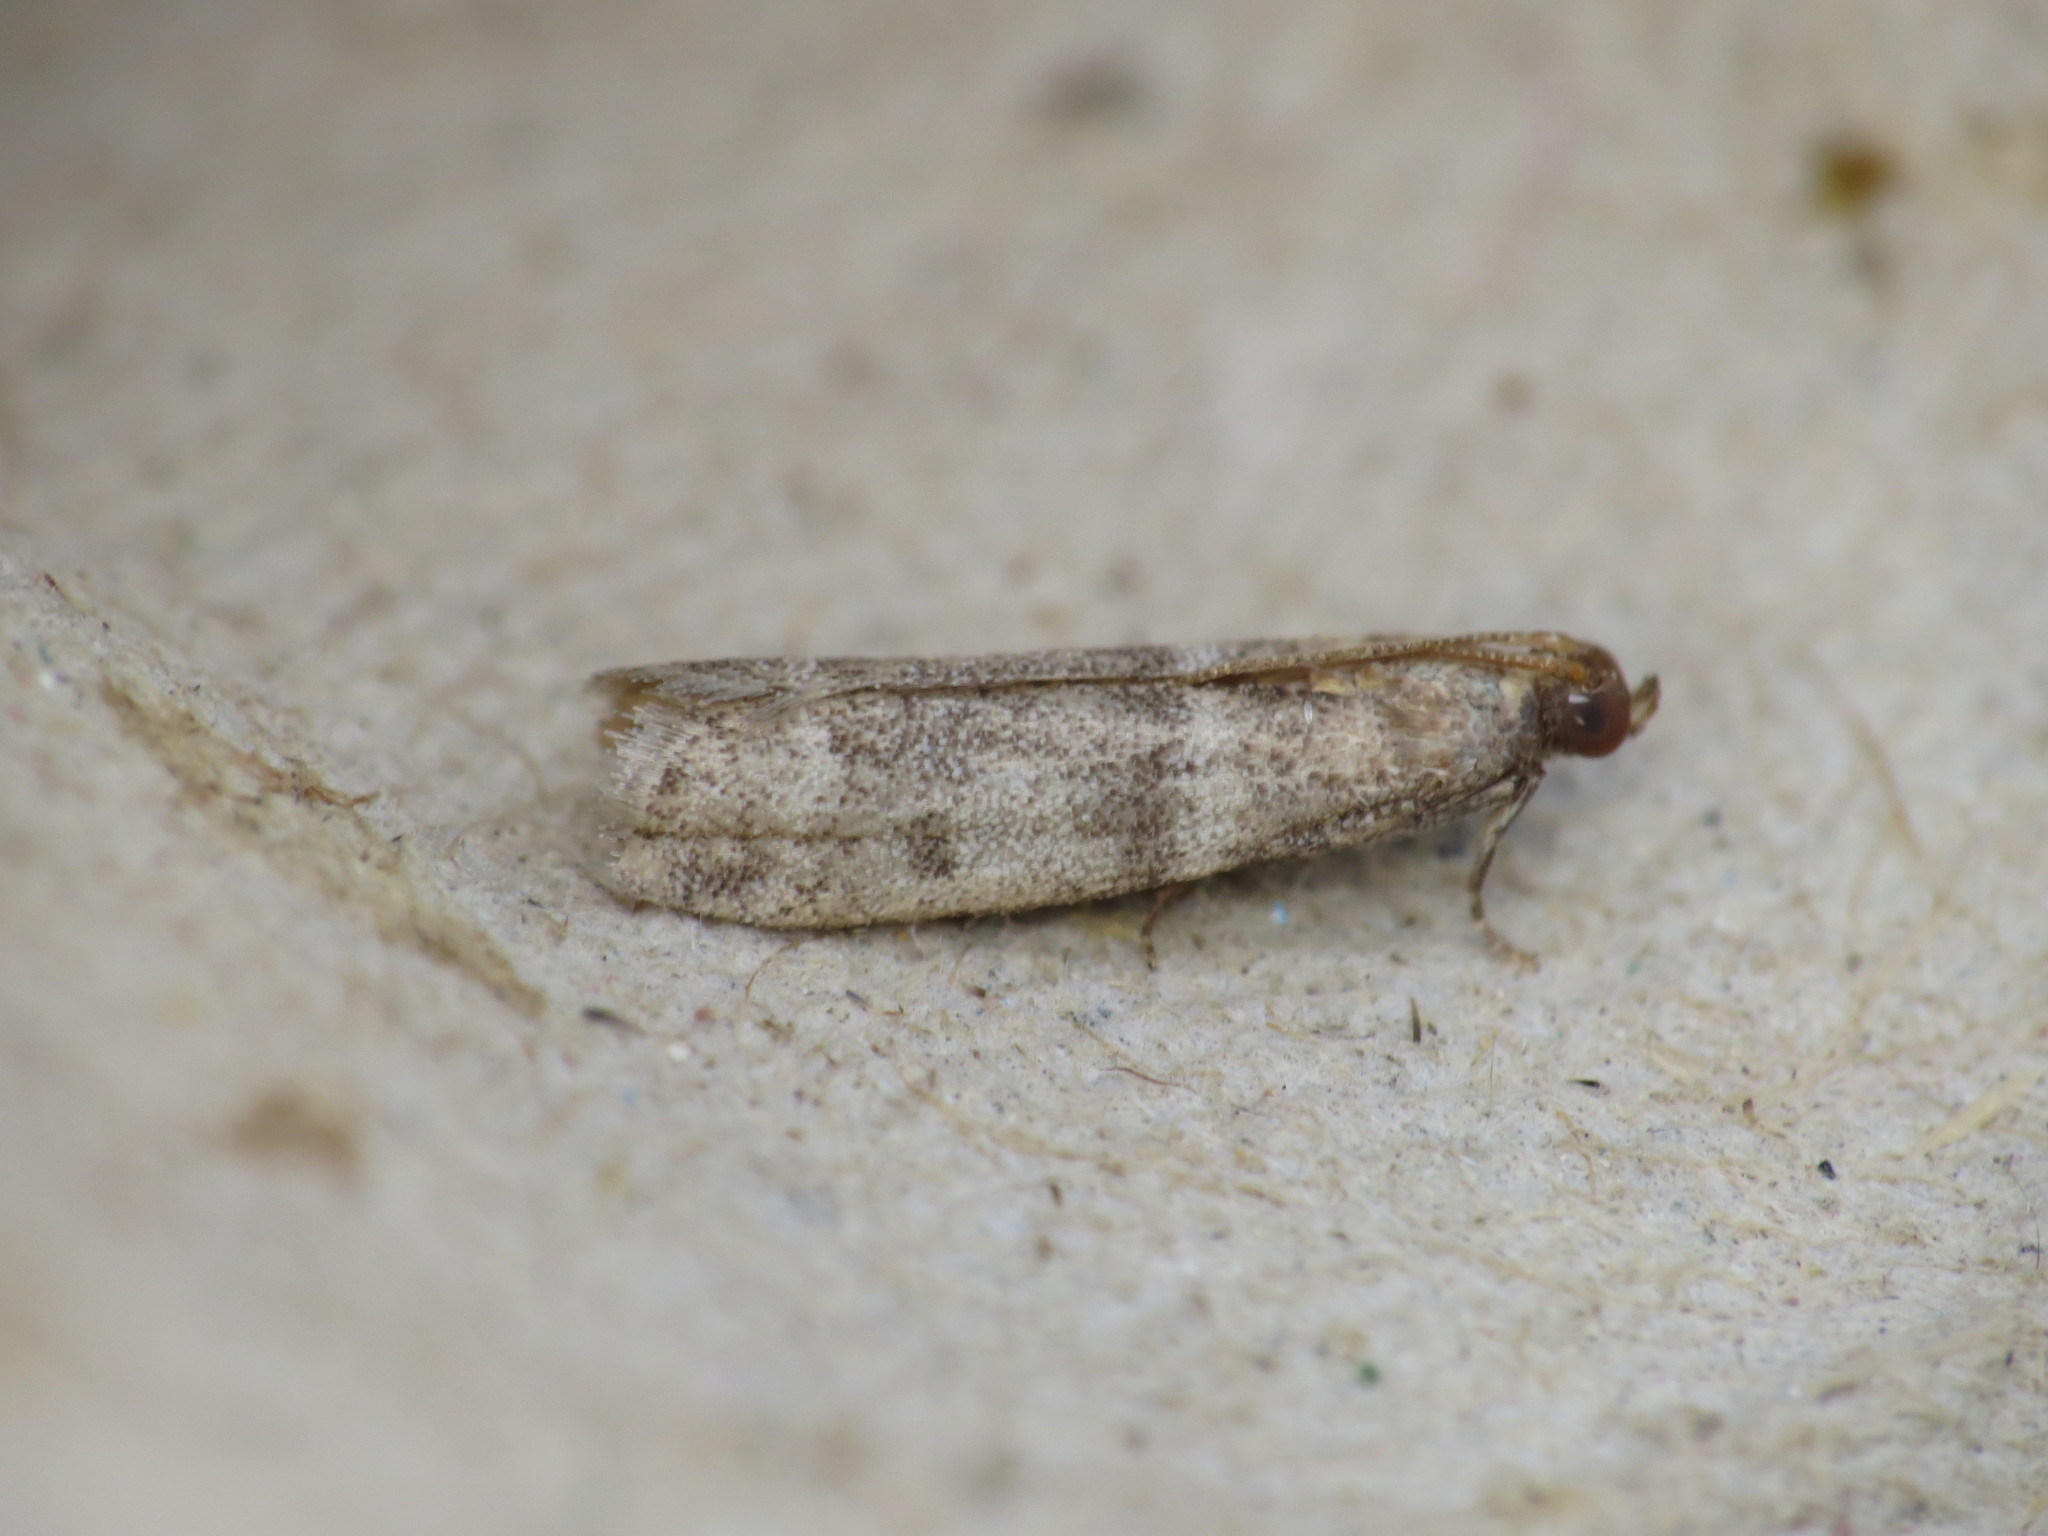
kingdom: Animalia
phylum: Arthropoda
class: Insecta
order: Lepidoptera
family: Pyralidae
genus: Ephestia
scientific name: Ephestia elutella
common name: Cacao moth
